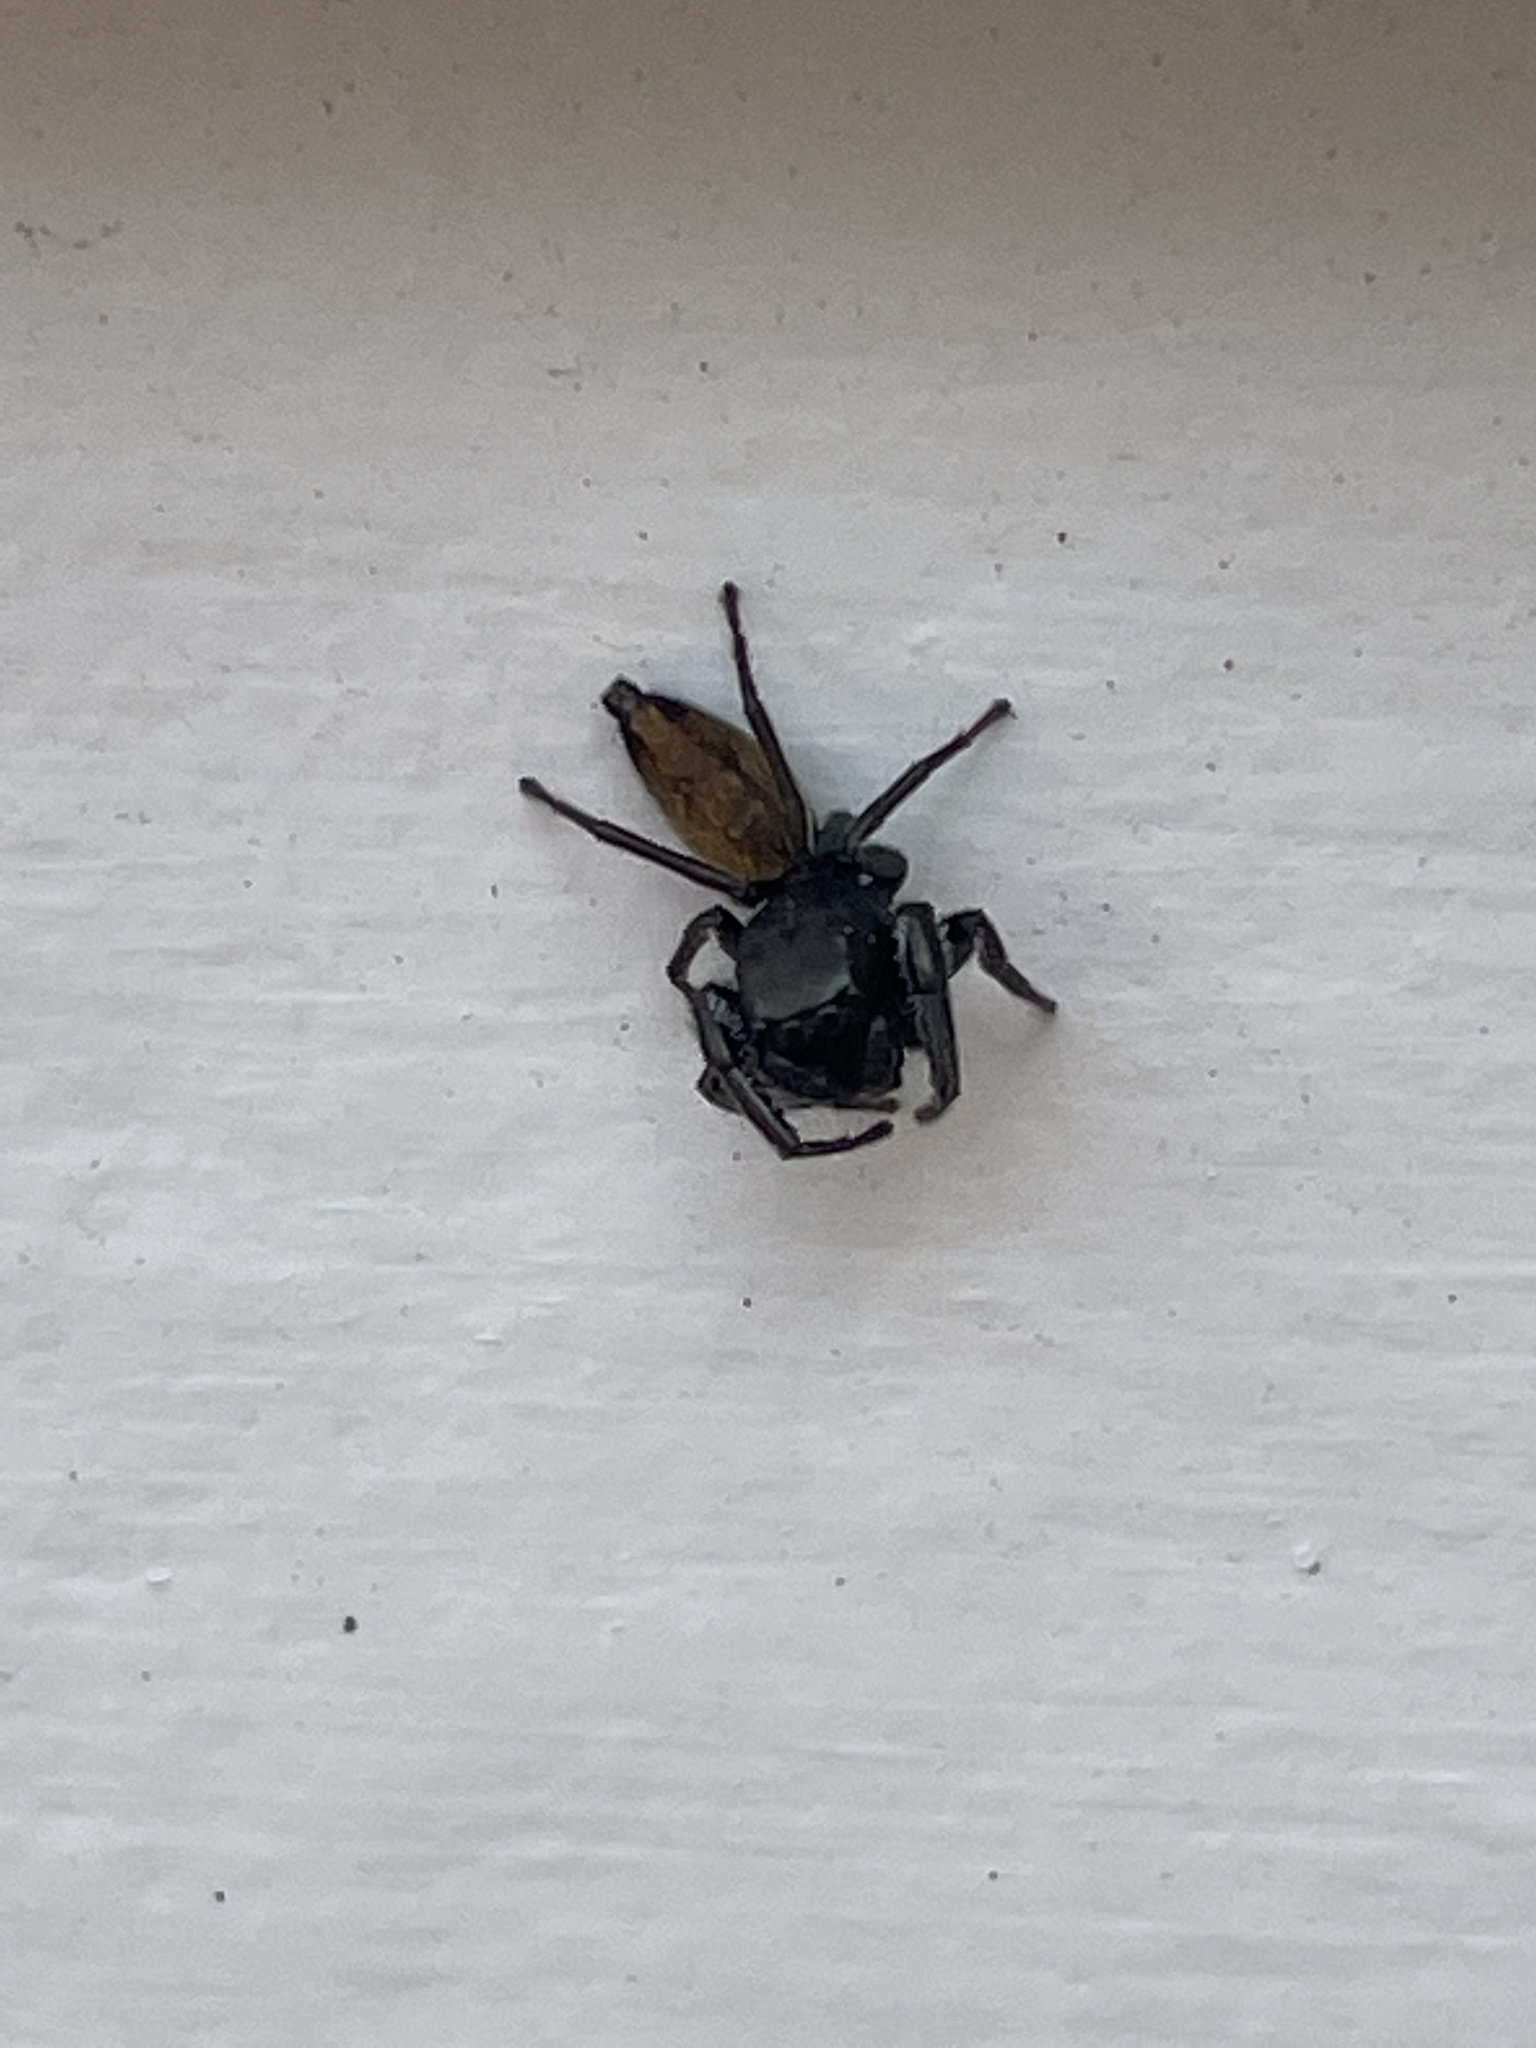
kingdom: Animalia
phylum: Arthropoda
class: Arachnida
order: Araneae
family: Salticidae
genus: Pungalina
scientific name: Pungalina semiferruginea
